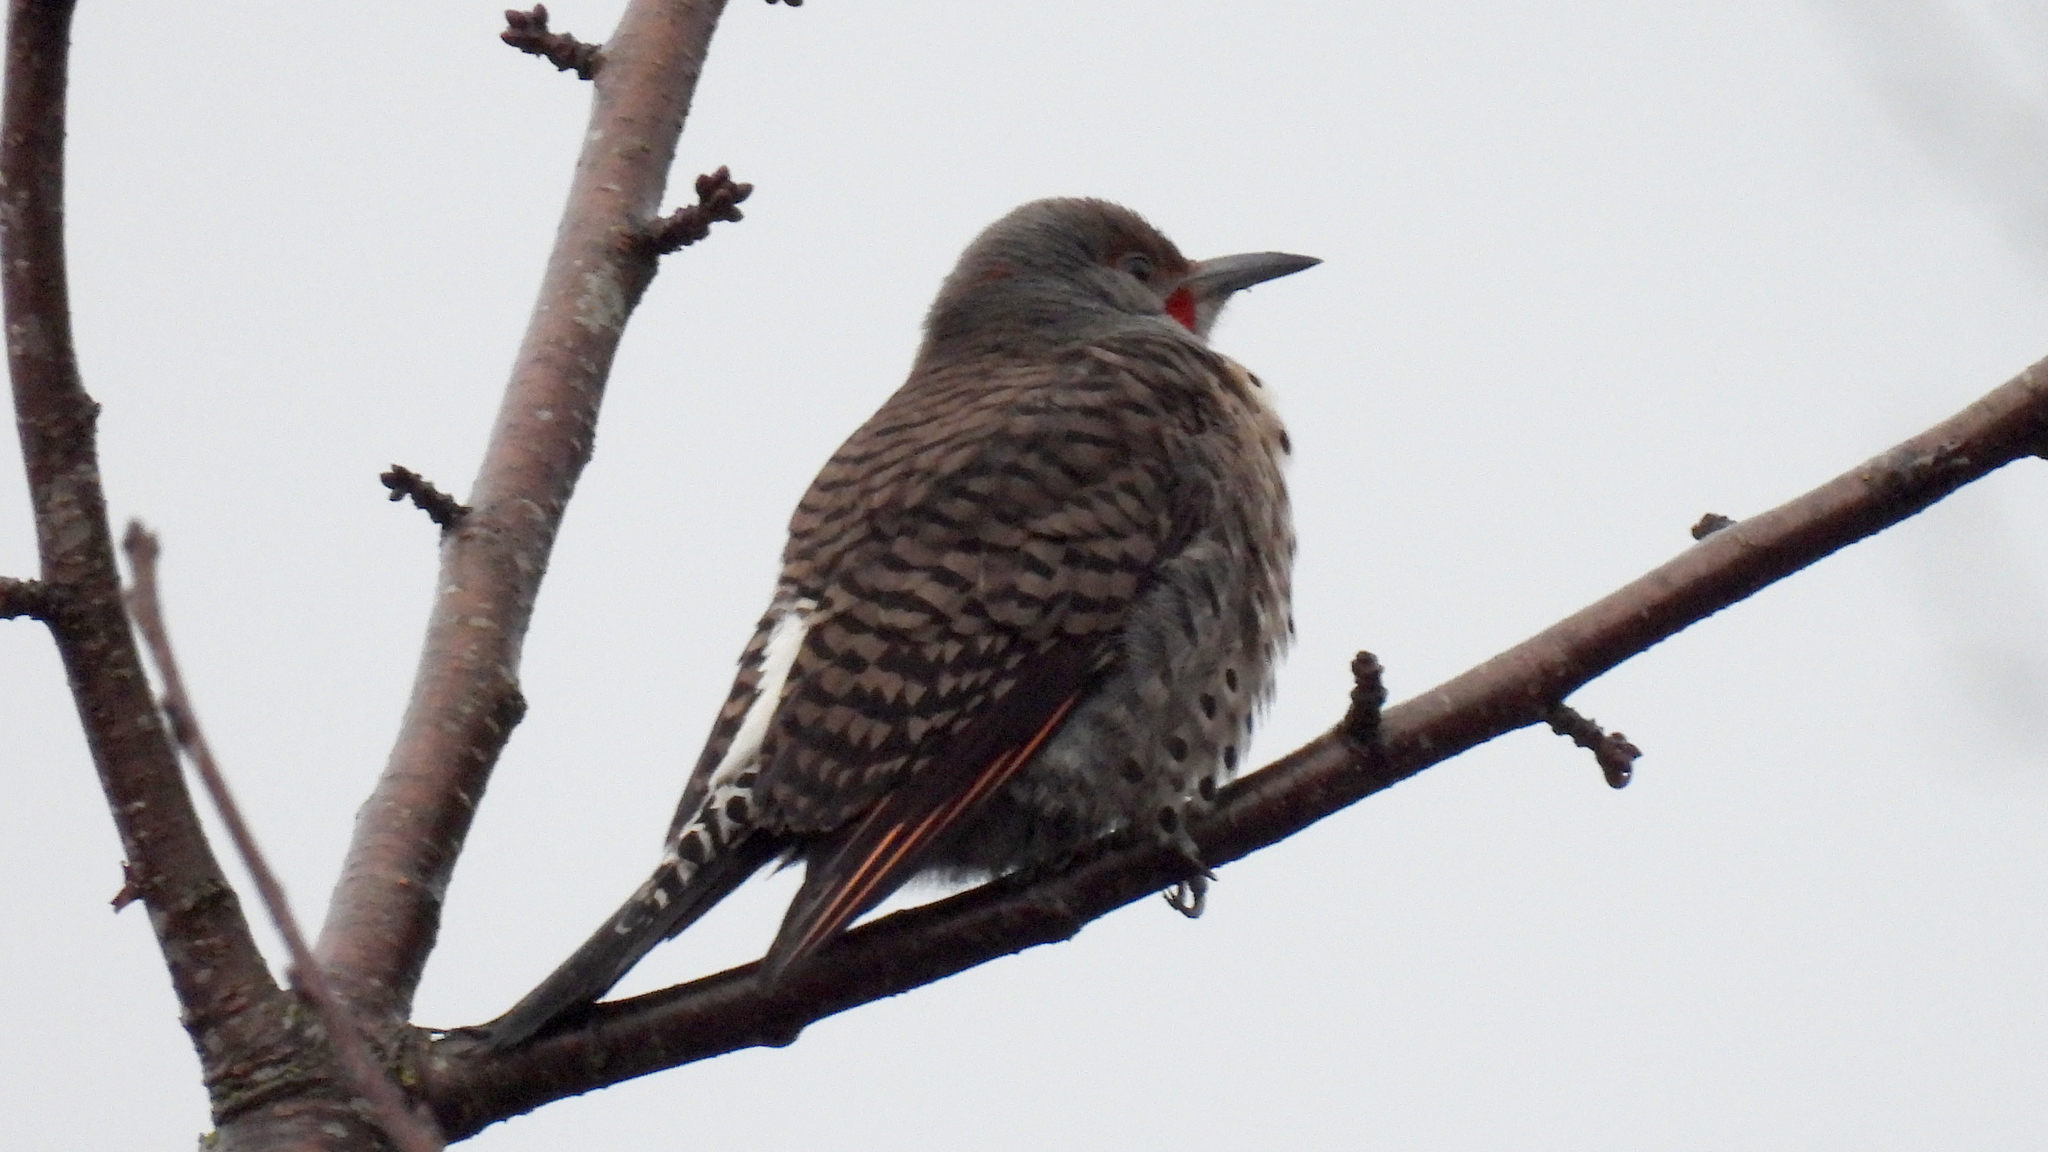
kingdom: Animalia
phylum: Chordata
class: Aves
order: Piciformes
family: Picidae
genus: Colaptes
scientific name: Colaptes auratus
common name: Northern flicker
